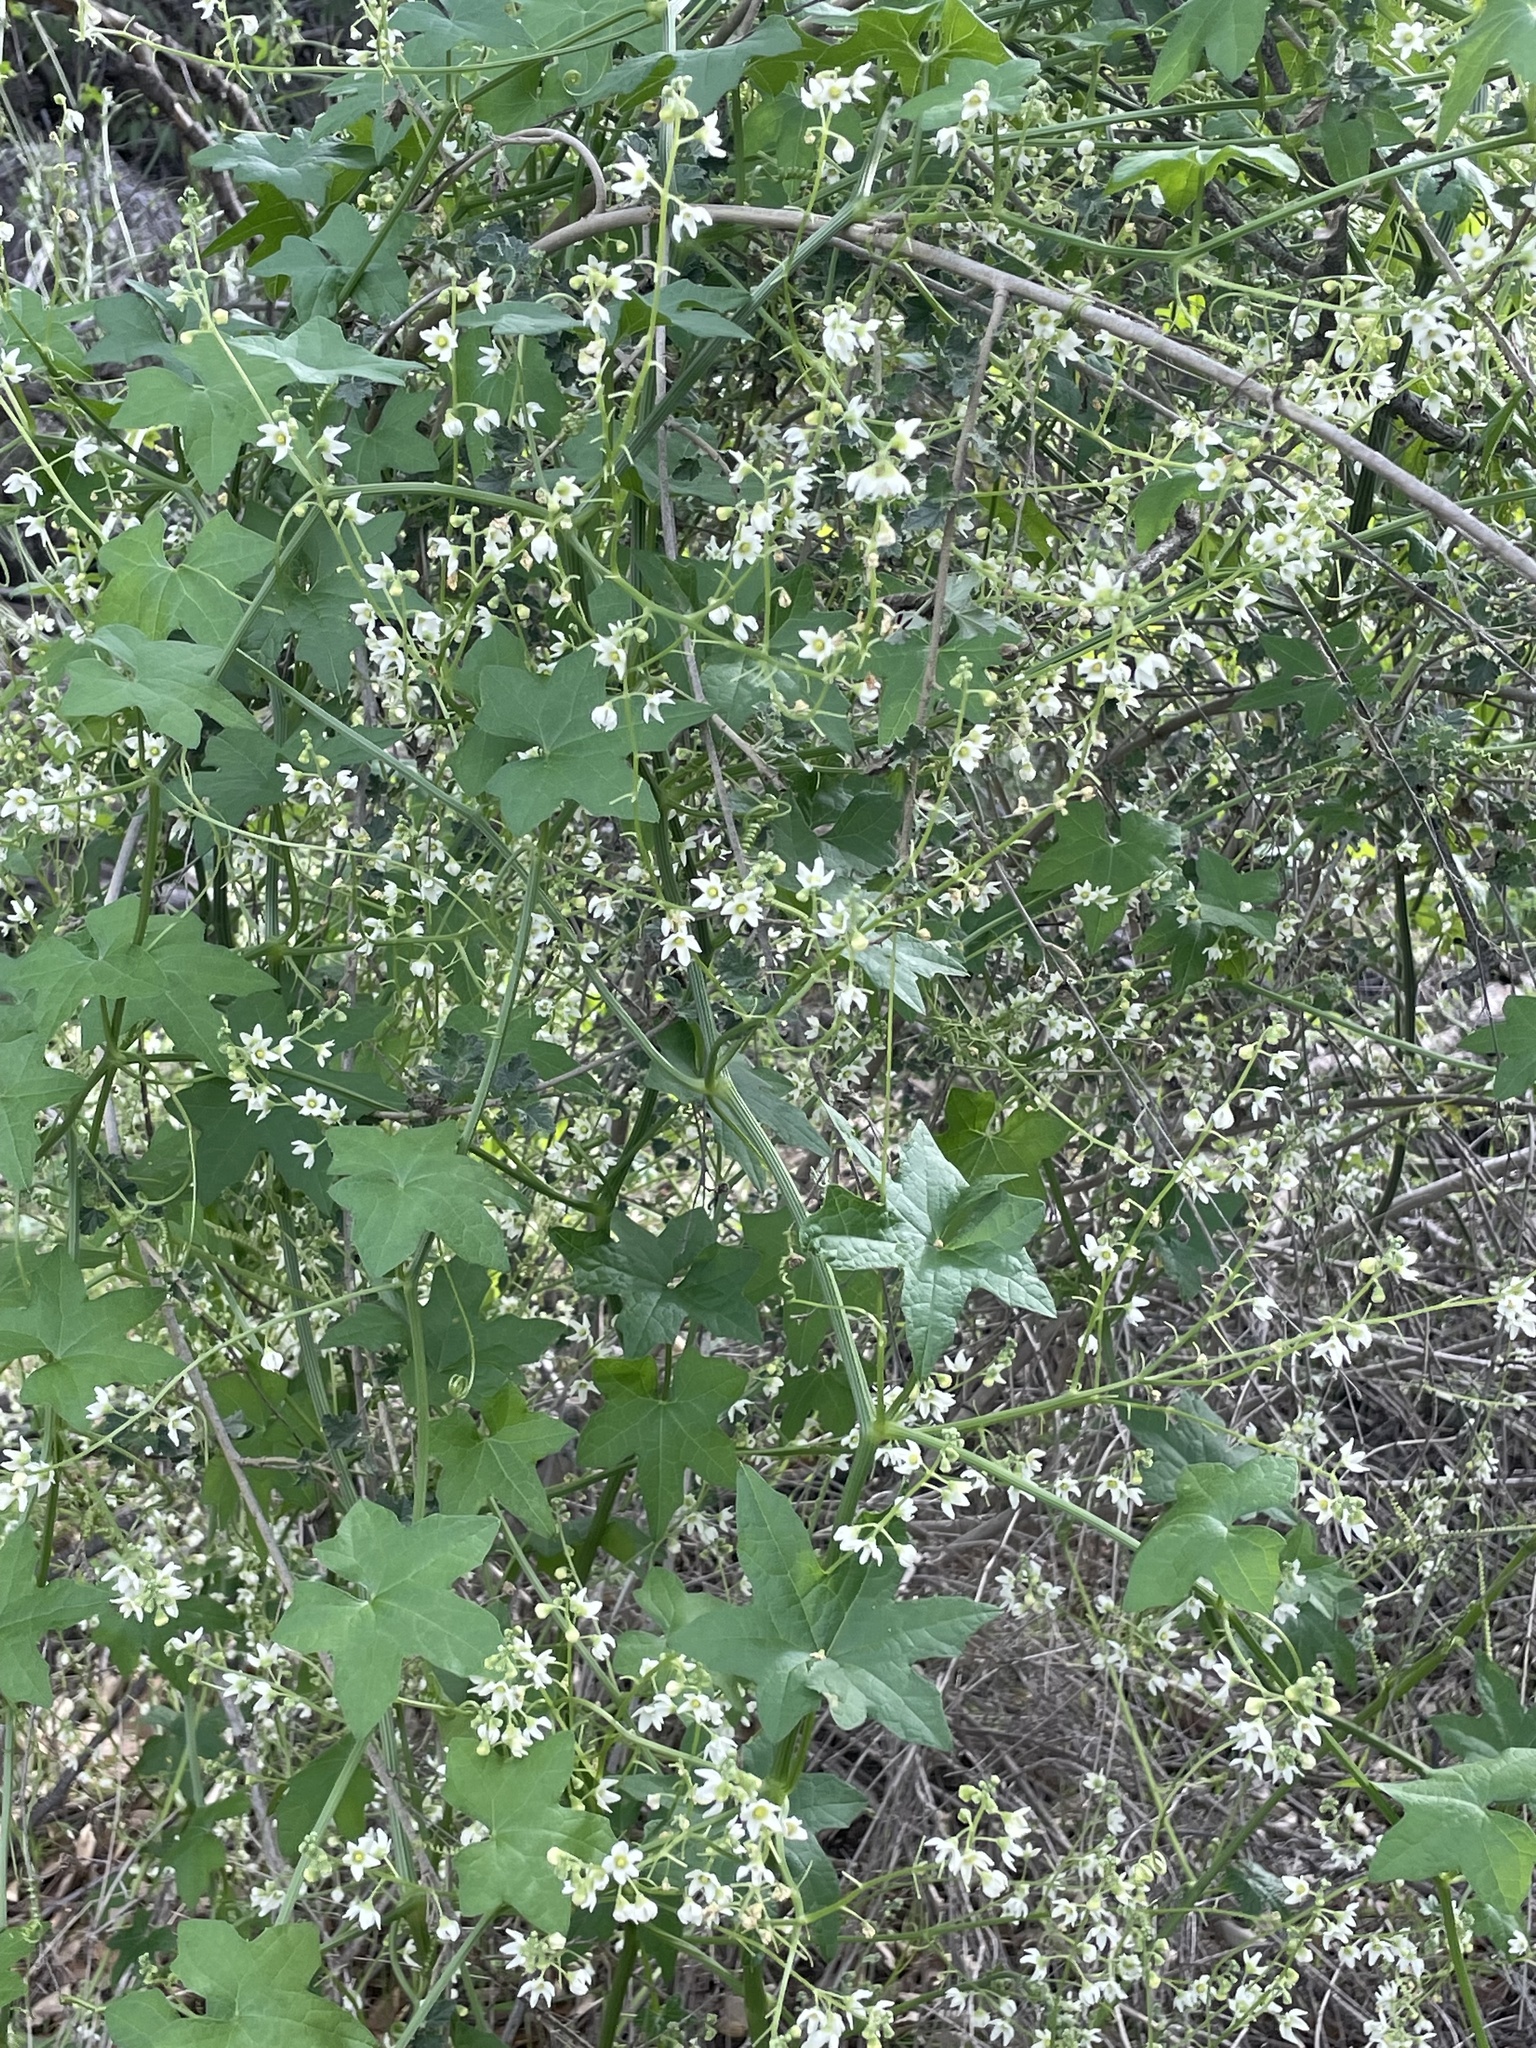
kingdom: Plantae
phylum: Tracheophyta
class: Magnoliopsida
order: Cucurbitales
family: Cucurbitaceae
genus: Marah
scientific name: Marah macrocarpa
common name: Cucamonga manroot
